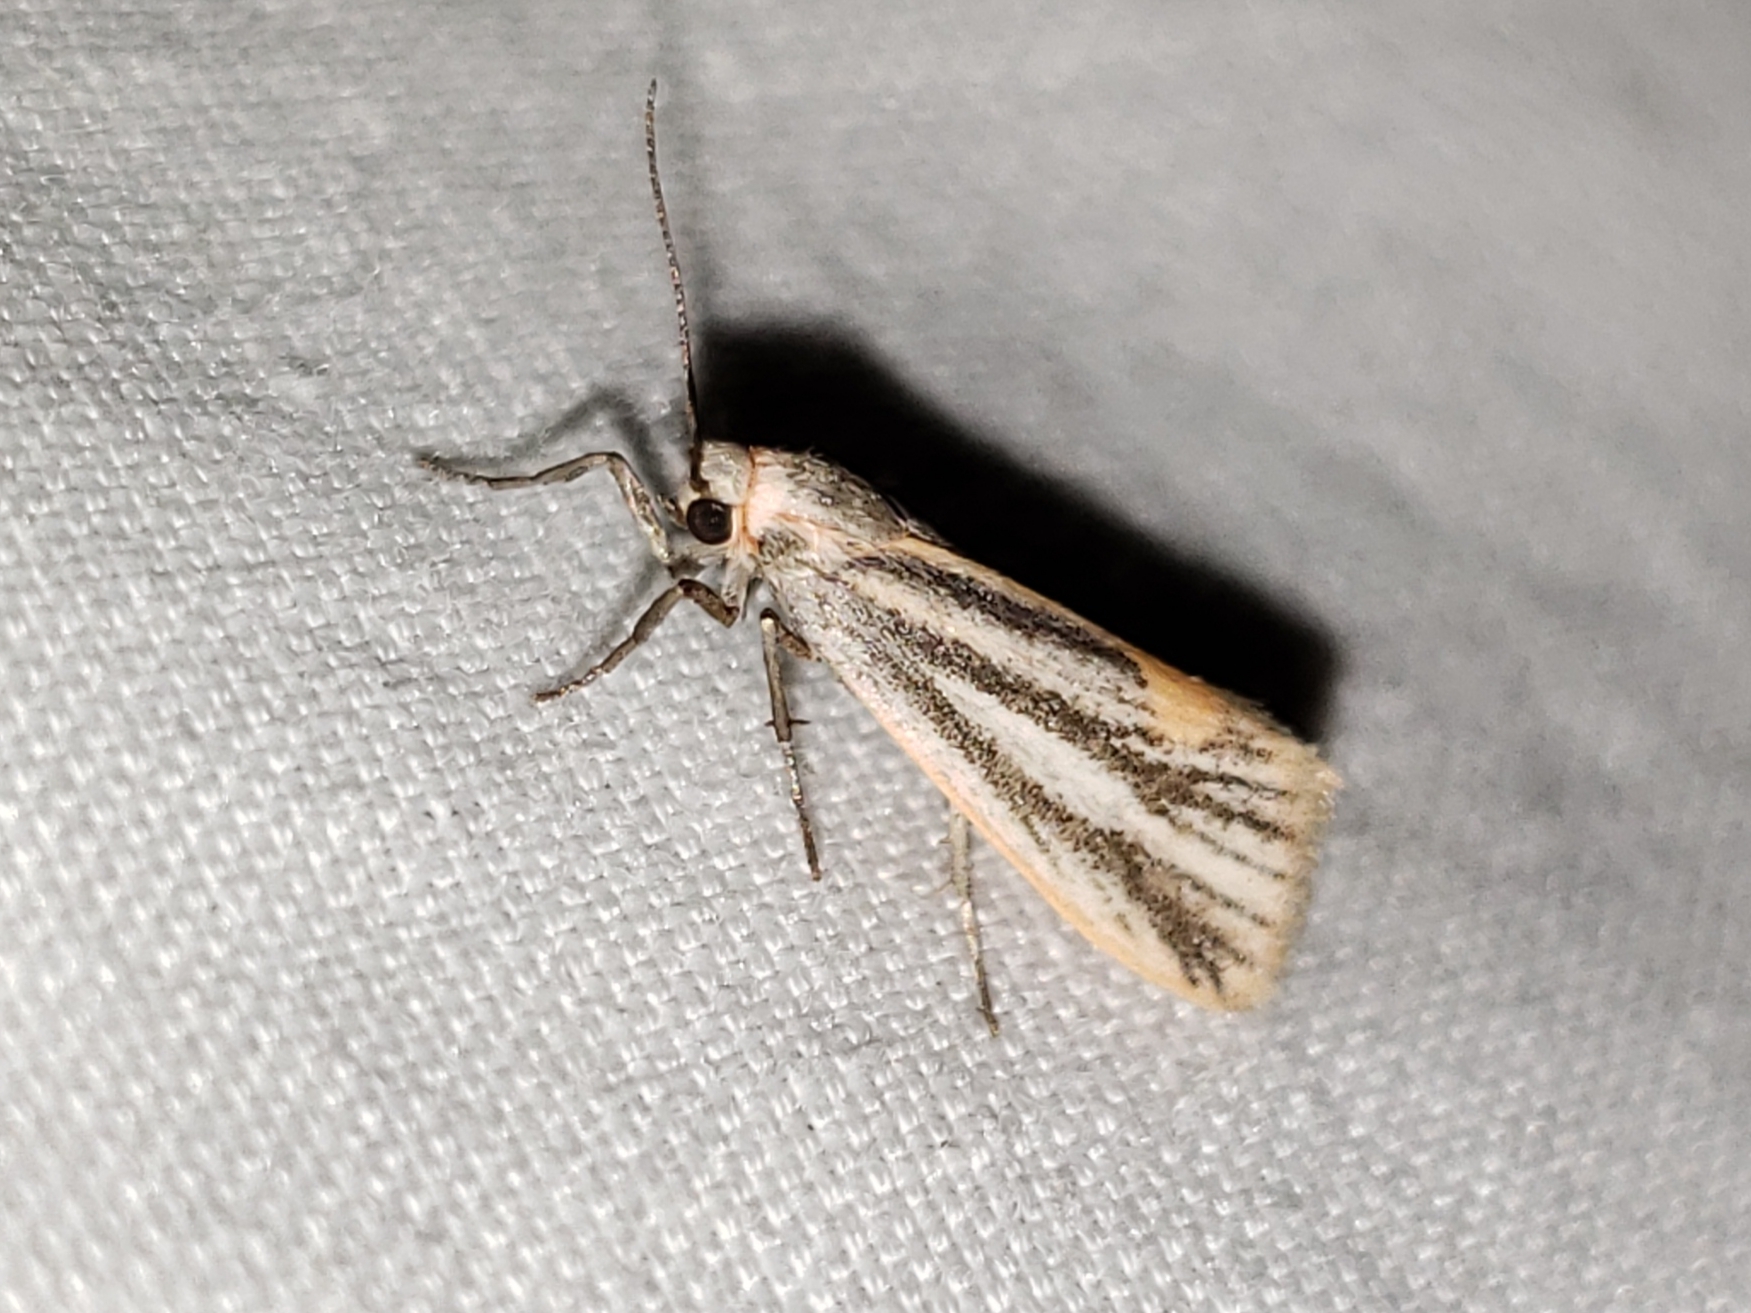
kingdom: Animalia
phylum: Arthropoda
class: Insecta
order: Lepidoptera
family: Erebidae
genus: Cisthene
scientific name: Cisthene striata
